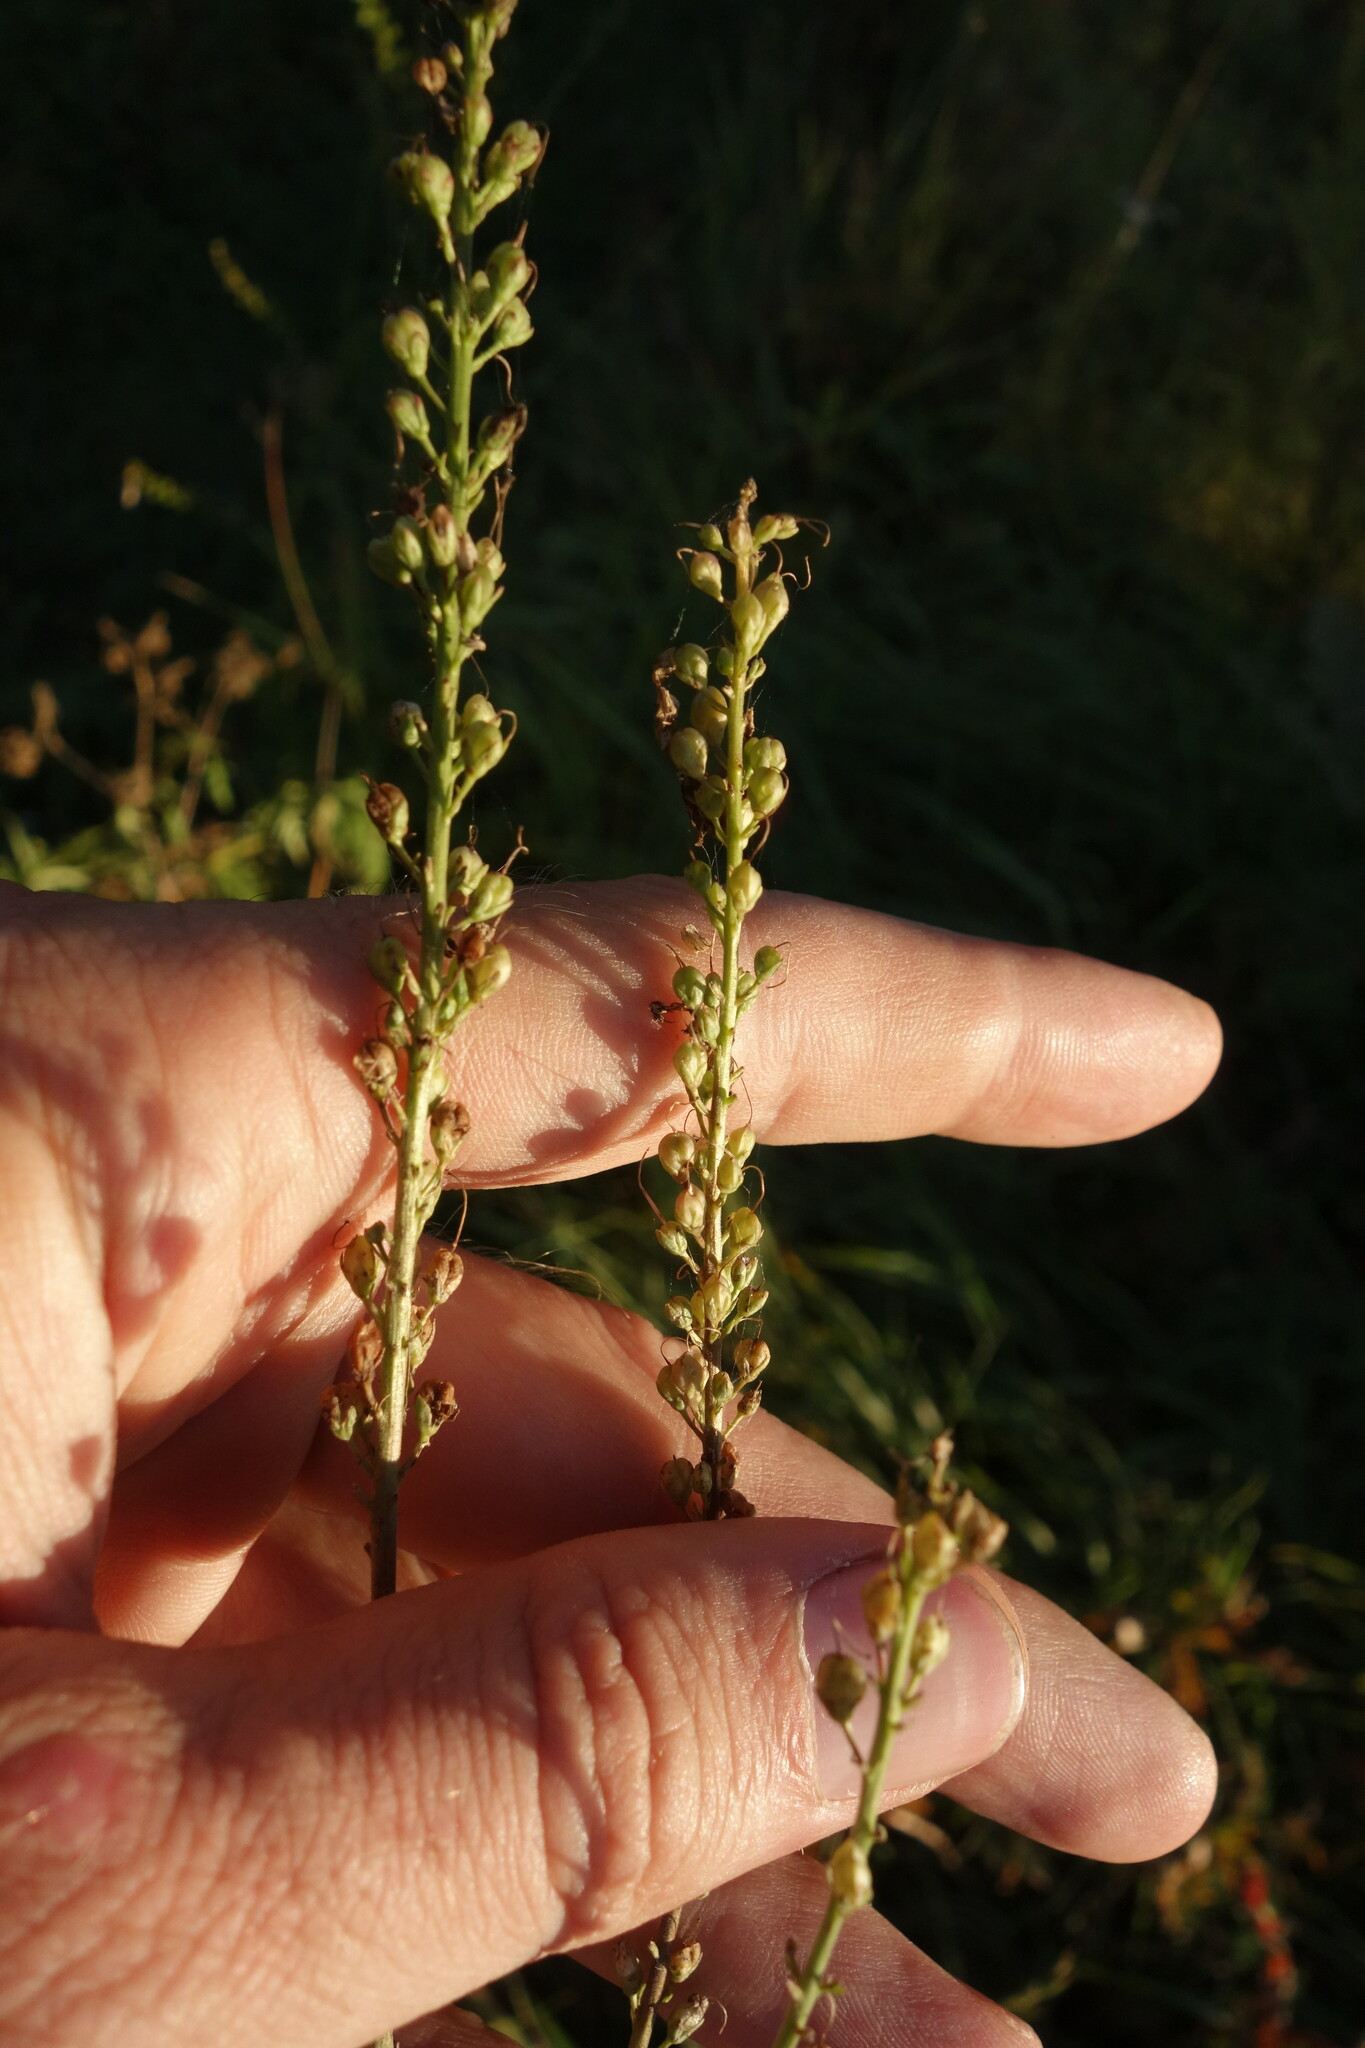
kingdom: Plantae
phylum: Tracheophyta
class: Magnoliopsida
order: Lamiales
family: Plantaginaceae
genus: Veronica
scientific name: Veronica longifolia
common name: Garden speedwell
